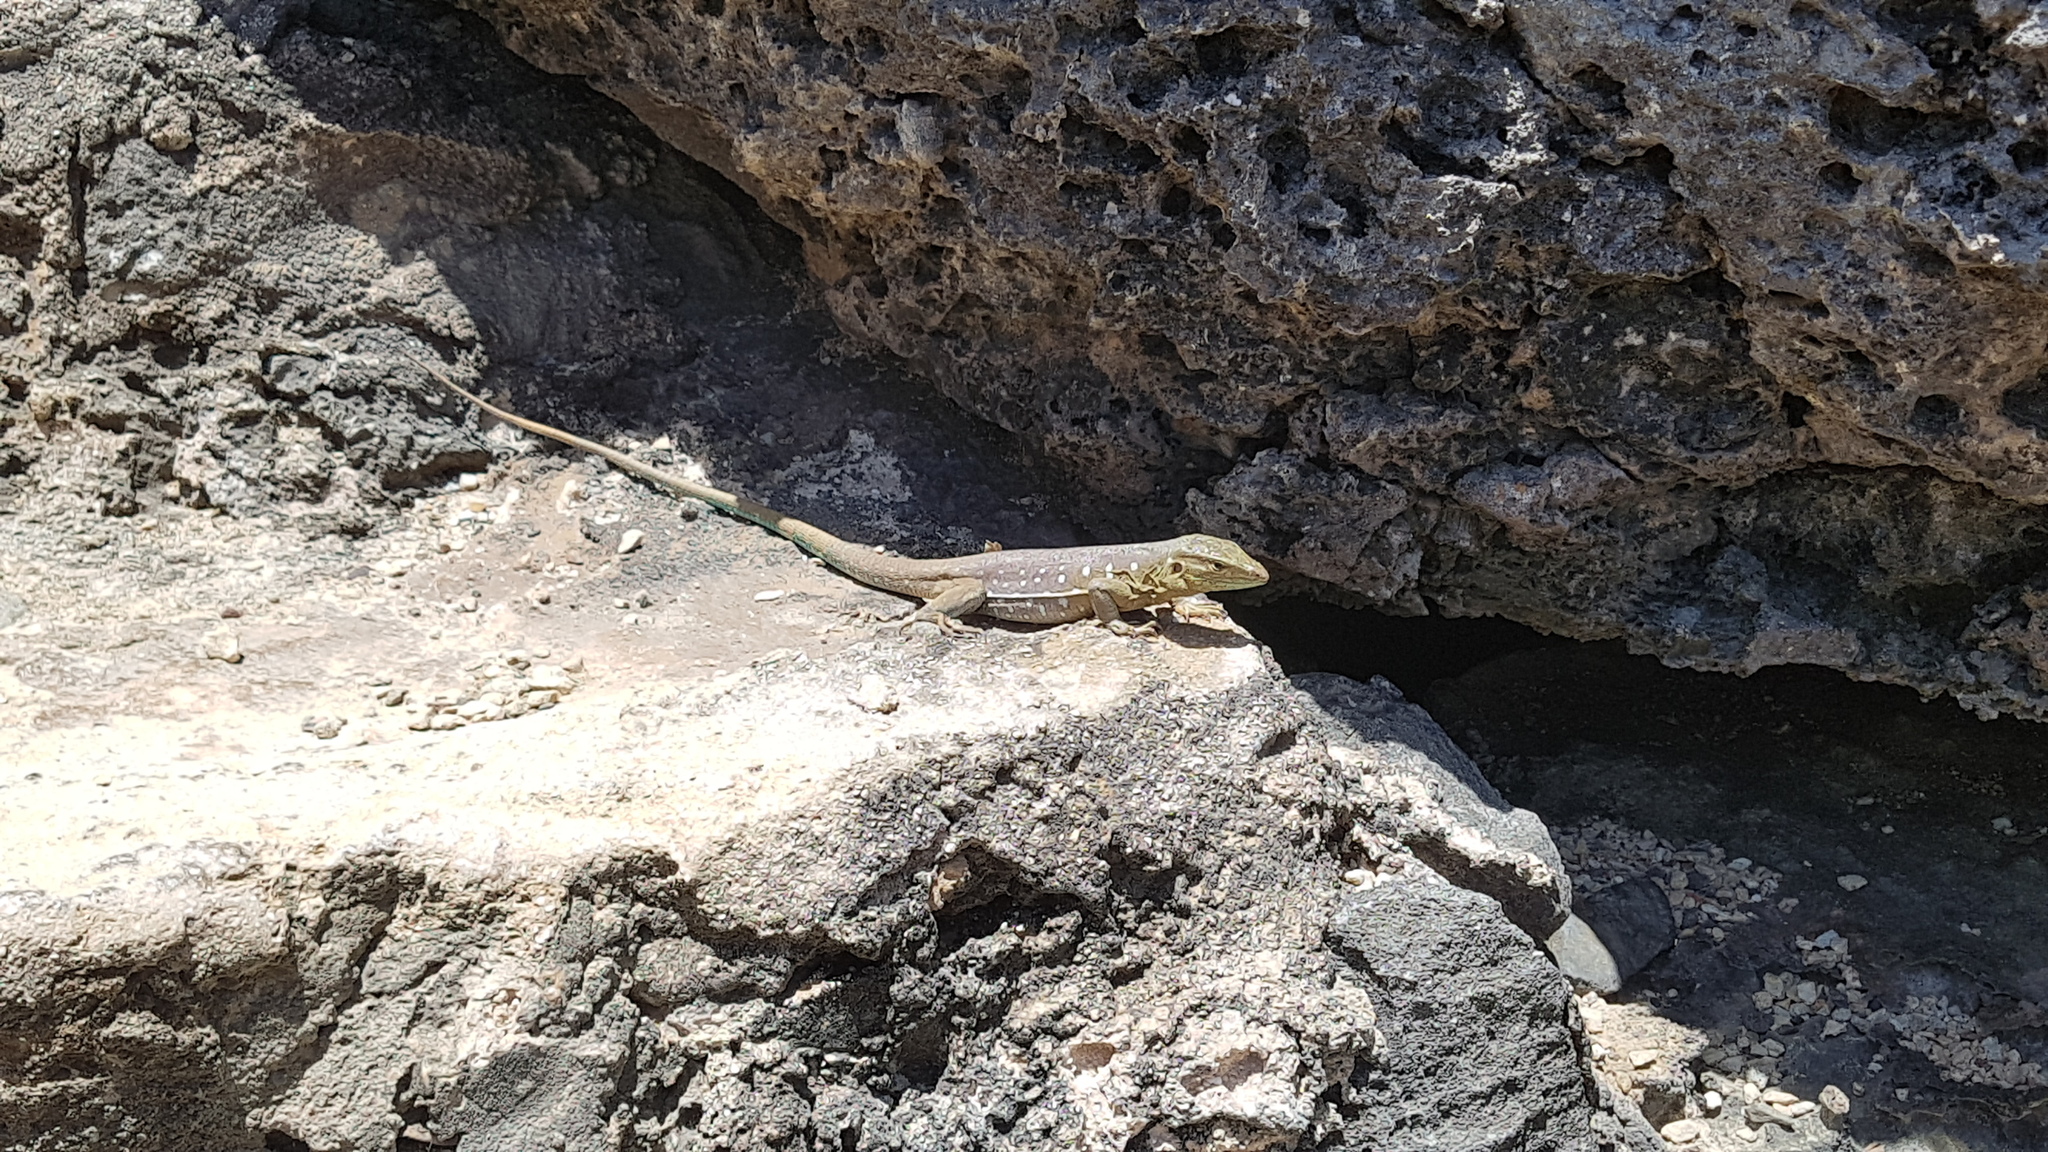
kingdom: Animalia
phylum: Chordata
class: Squamata
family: Teiidae
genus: Cnemidophorus
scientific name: Cnemidophorus murinus
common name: Laurent's whiptail
